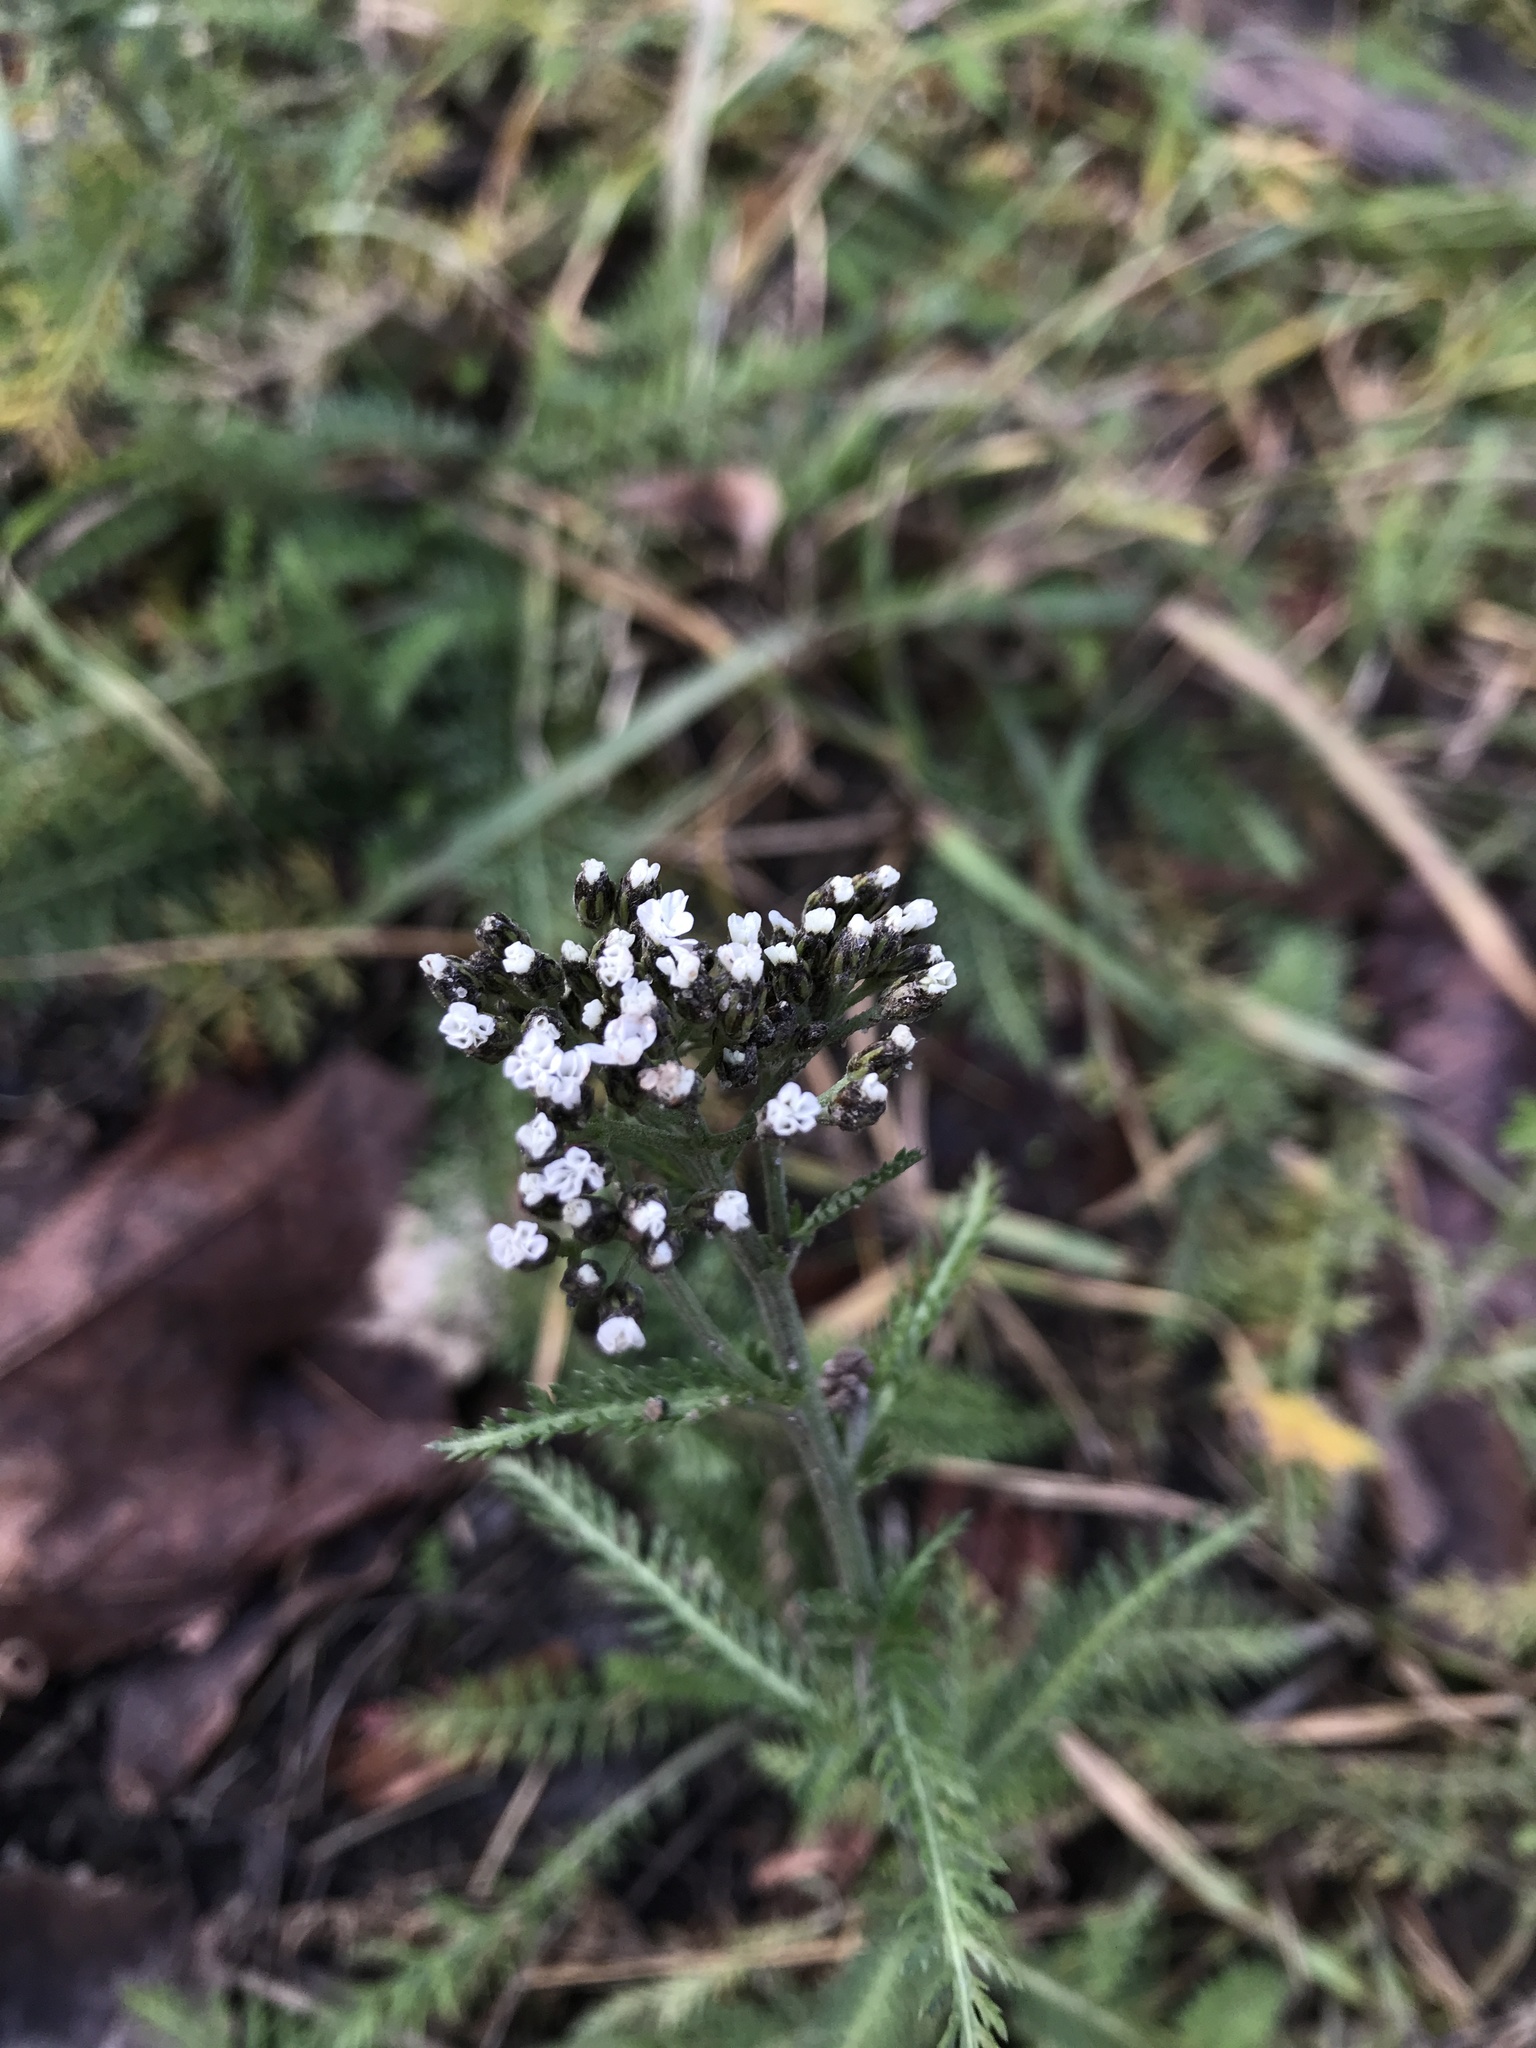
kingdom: Plantae
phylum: Tracheophyta
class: Magnoliopsida
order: Asterales
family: Asteraceae
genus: Achillea
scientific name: Achillea millefolium
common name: Yarrow
